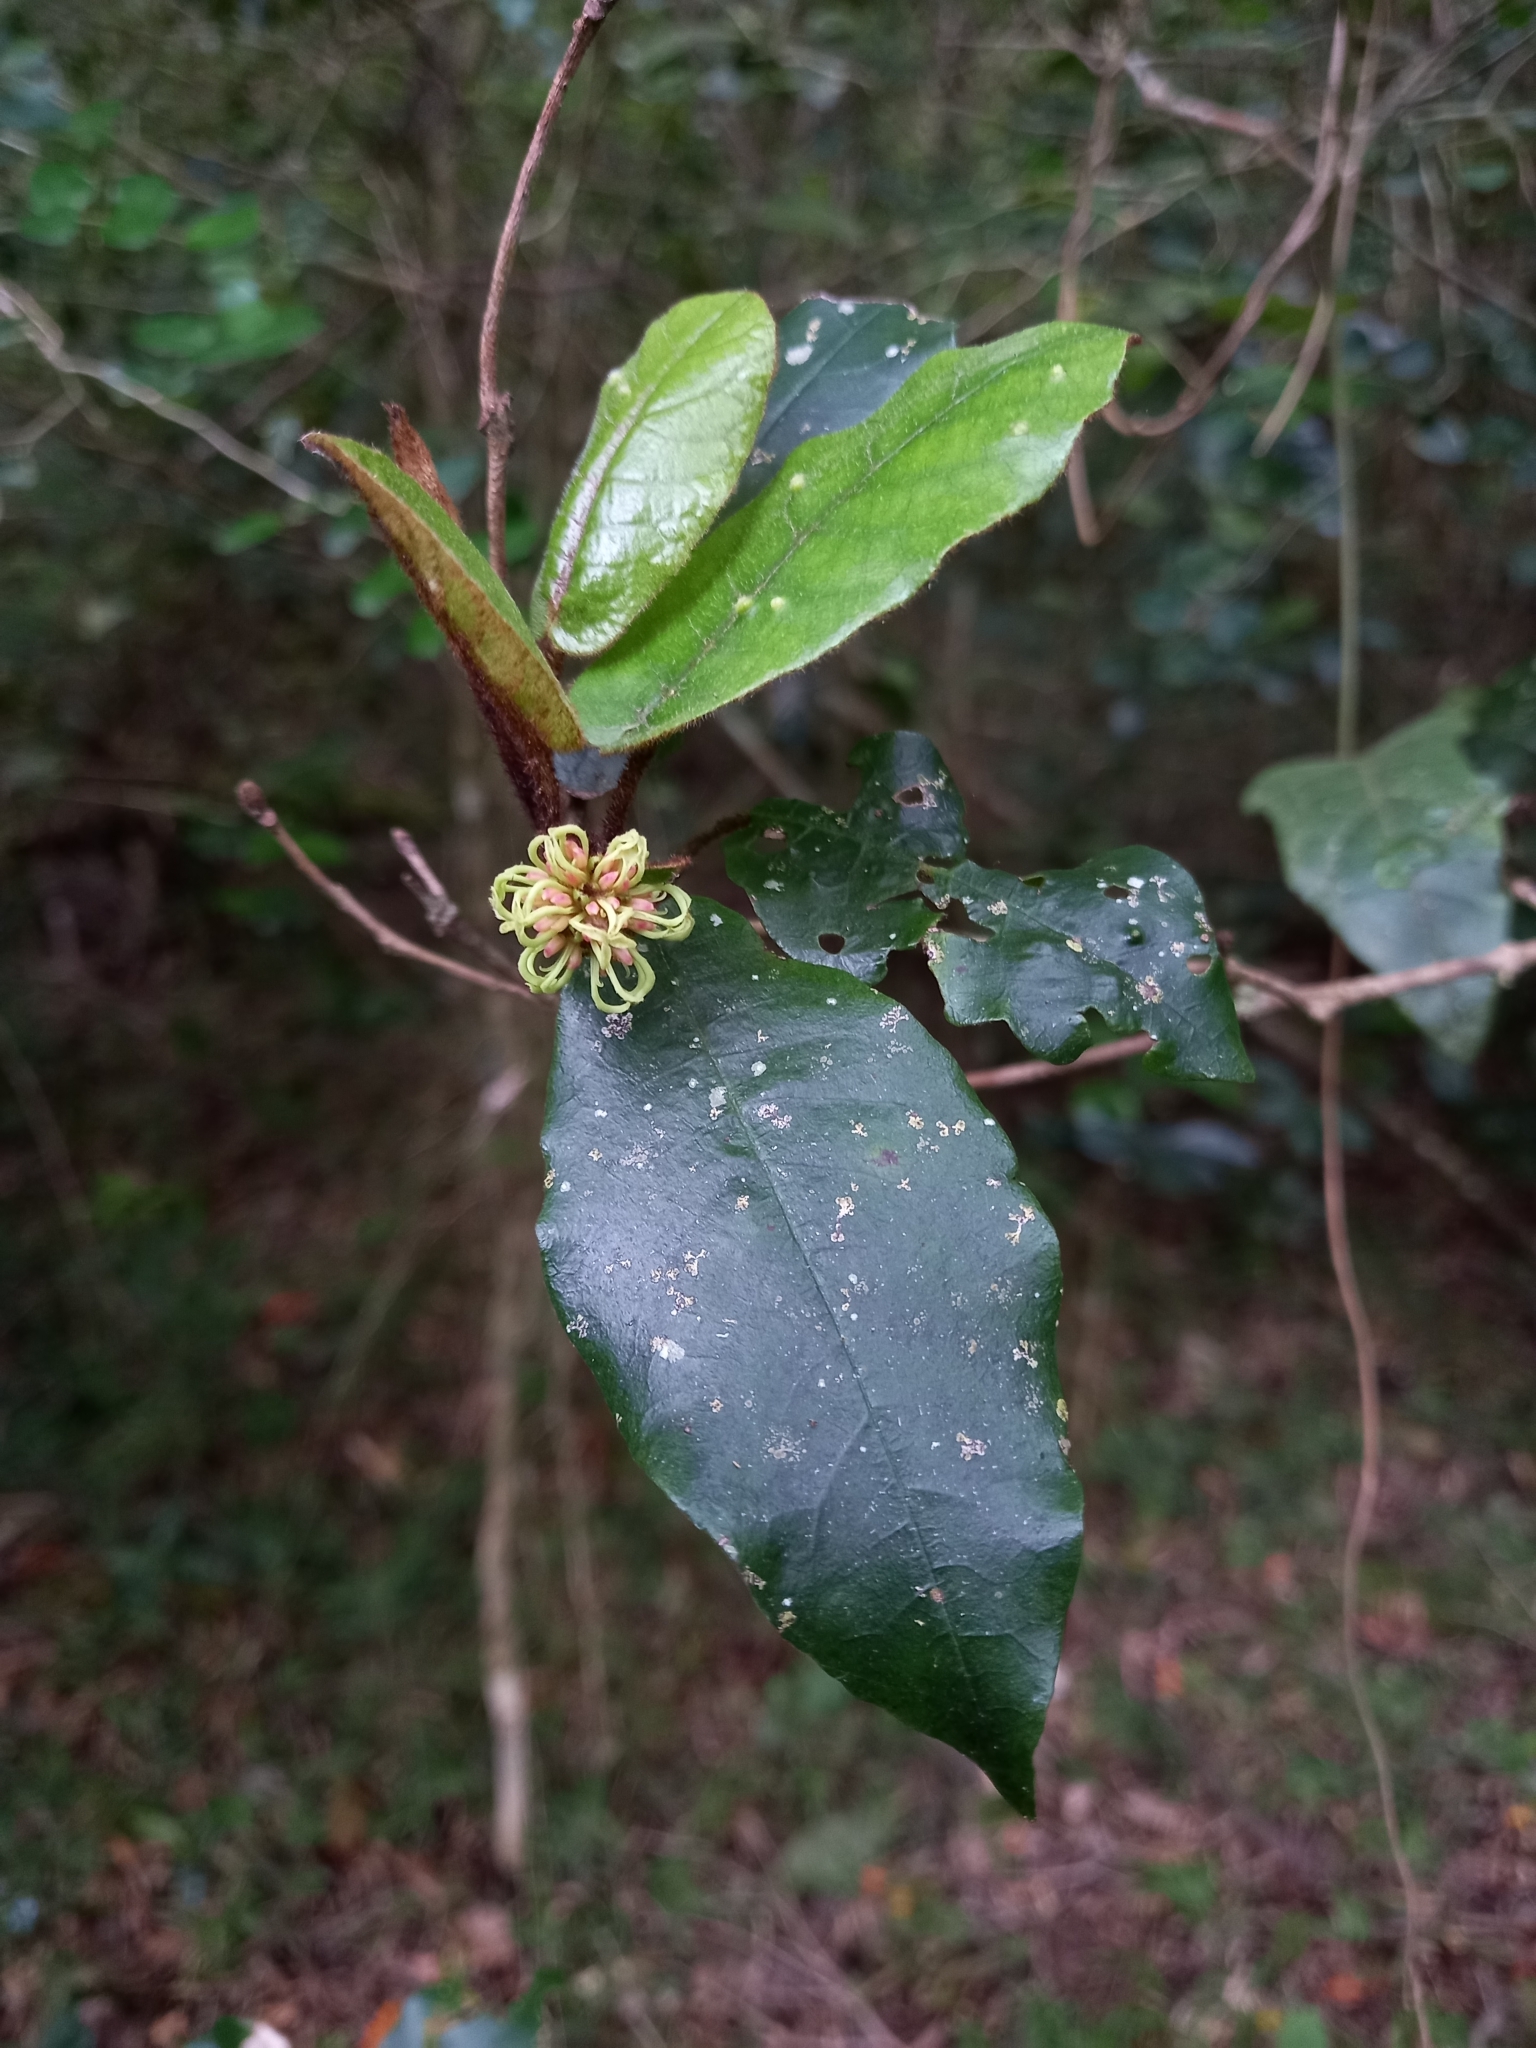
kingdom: Plantae
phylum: Tracheophyta
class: Magnoliopsida
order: Saxifragales
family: Hamamelidaceae
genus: Trichocladus
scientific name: Trichocladus crinitus
